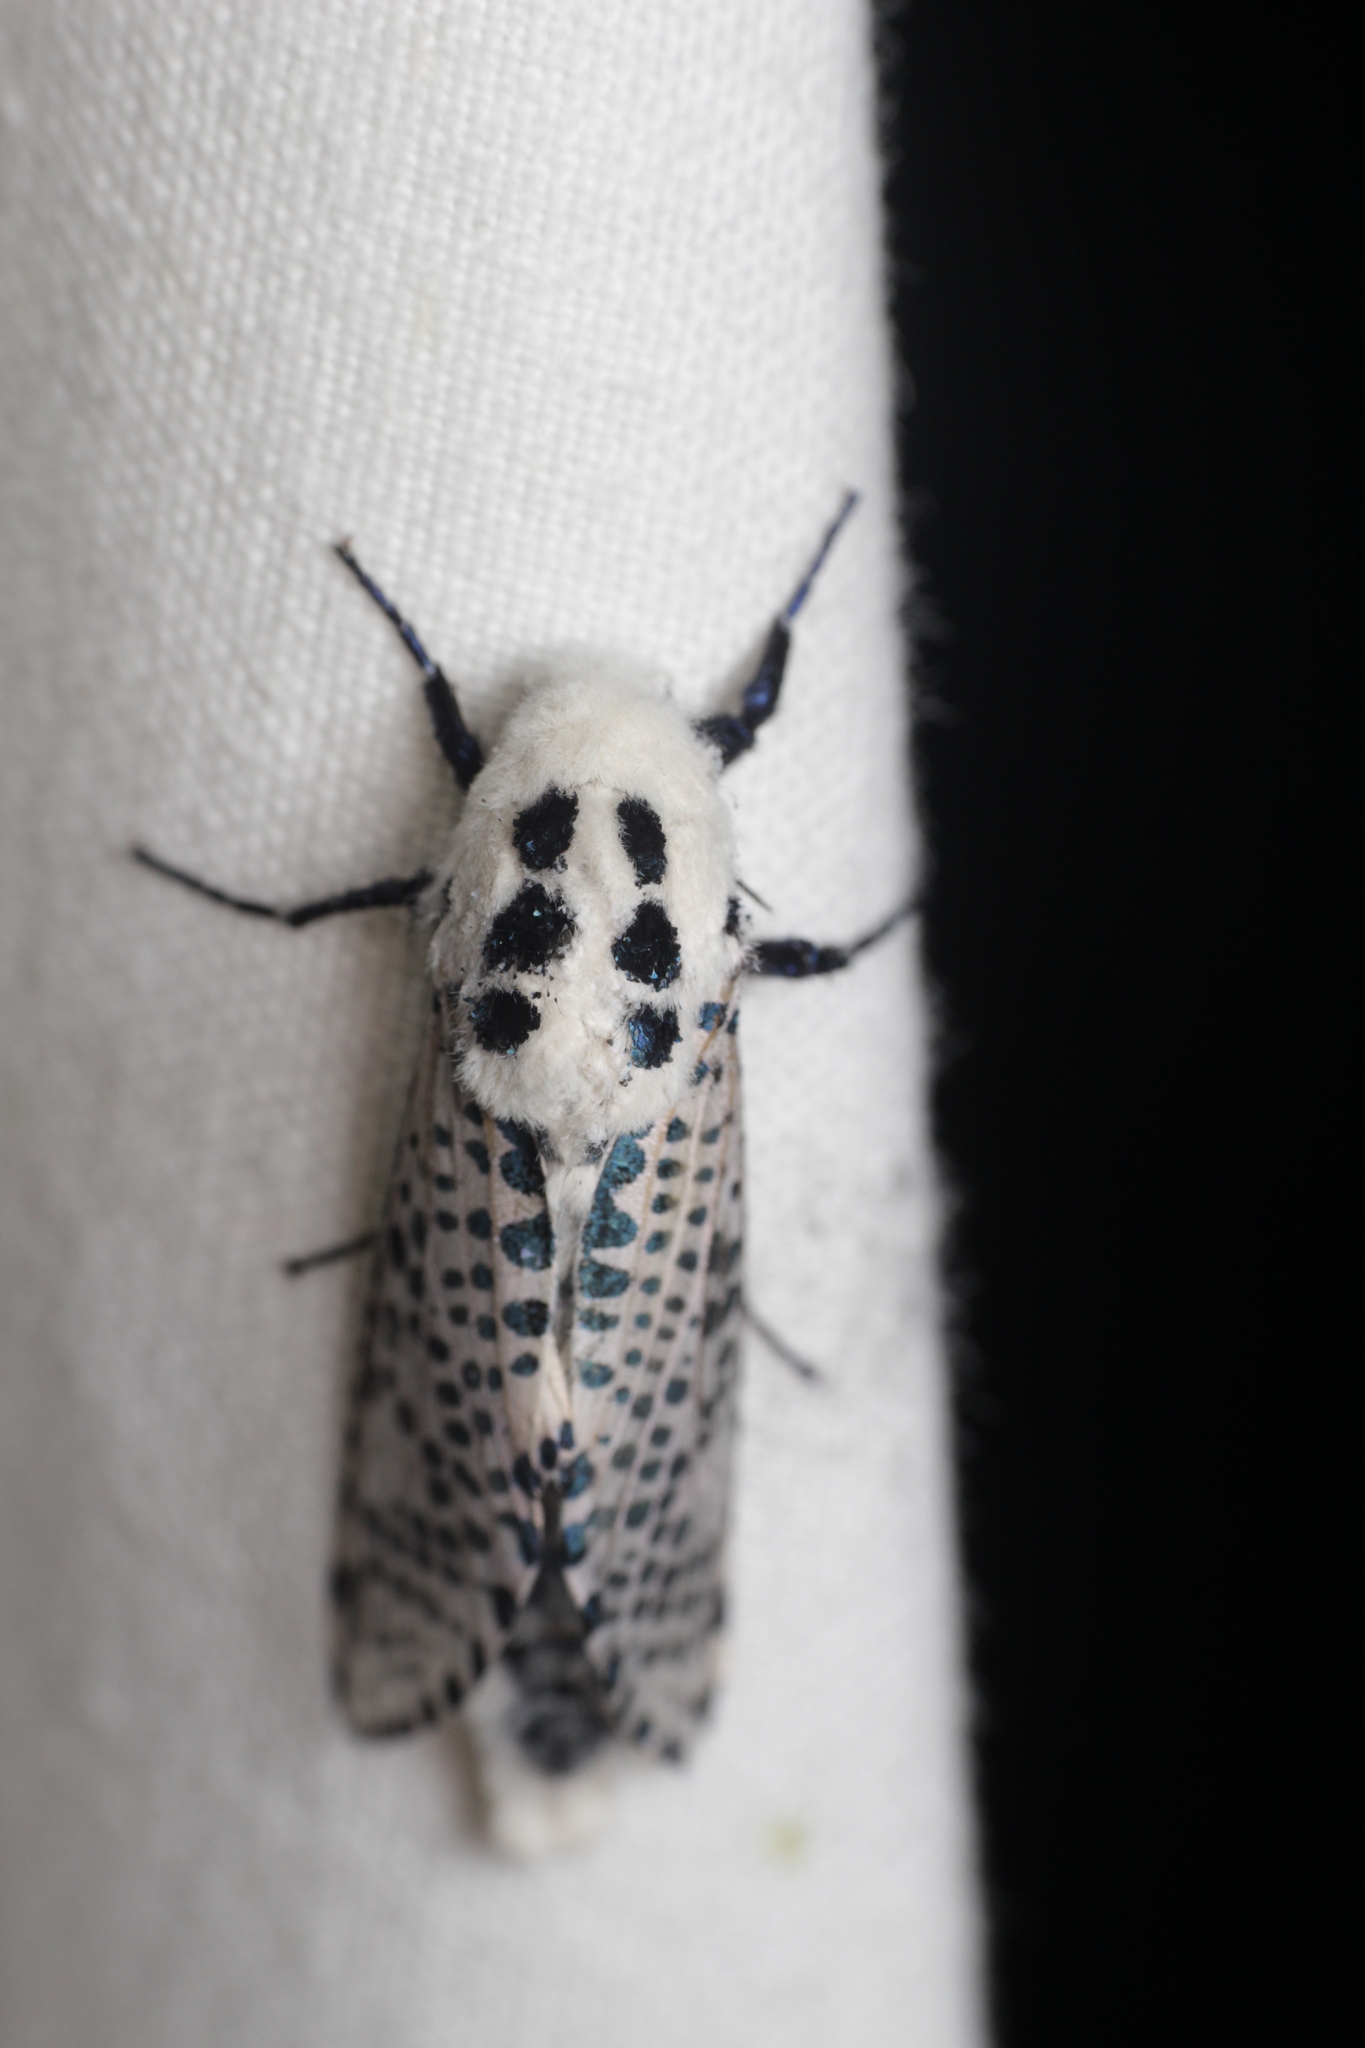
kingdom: Animalia
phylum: Arthropoda
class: Insecta
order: Lepidoptera
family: Cossidae
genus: Zeuzera
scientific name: Zeuzera pyrina
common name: Leopard moth
